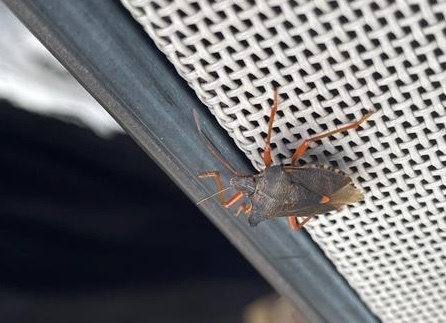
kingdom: Animalia
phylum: Arthropoda
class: Insecta
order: Hemiptera
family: Pentatomidae
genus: Pentatoma
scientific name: Pentatoma rufipes
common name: Forest bug
